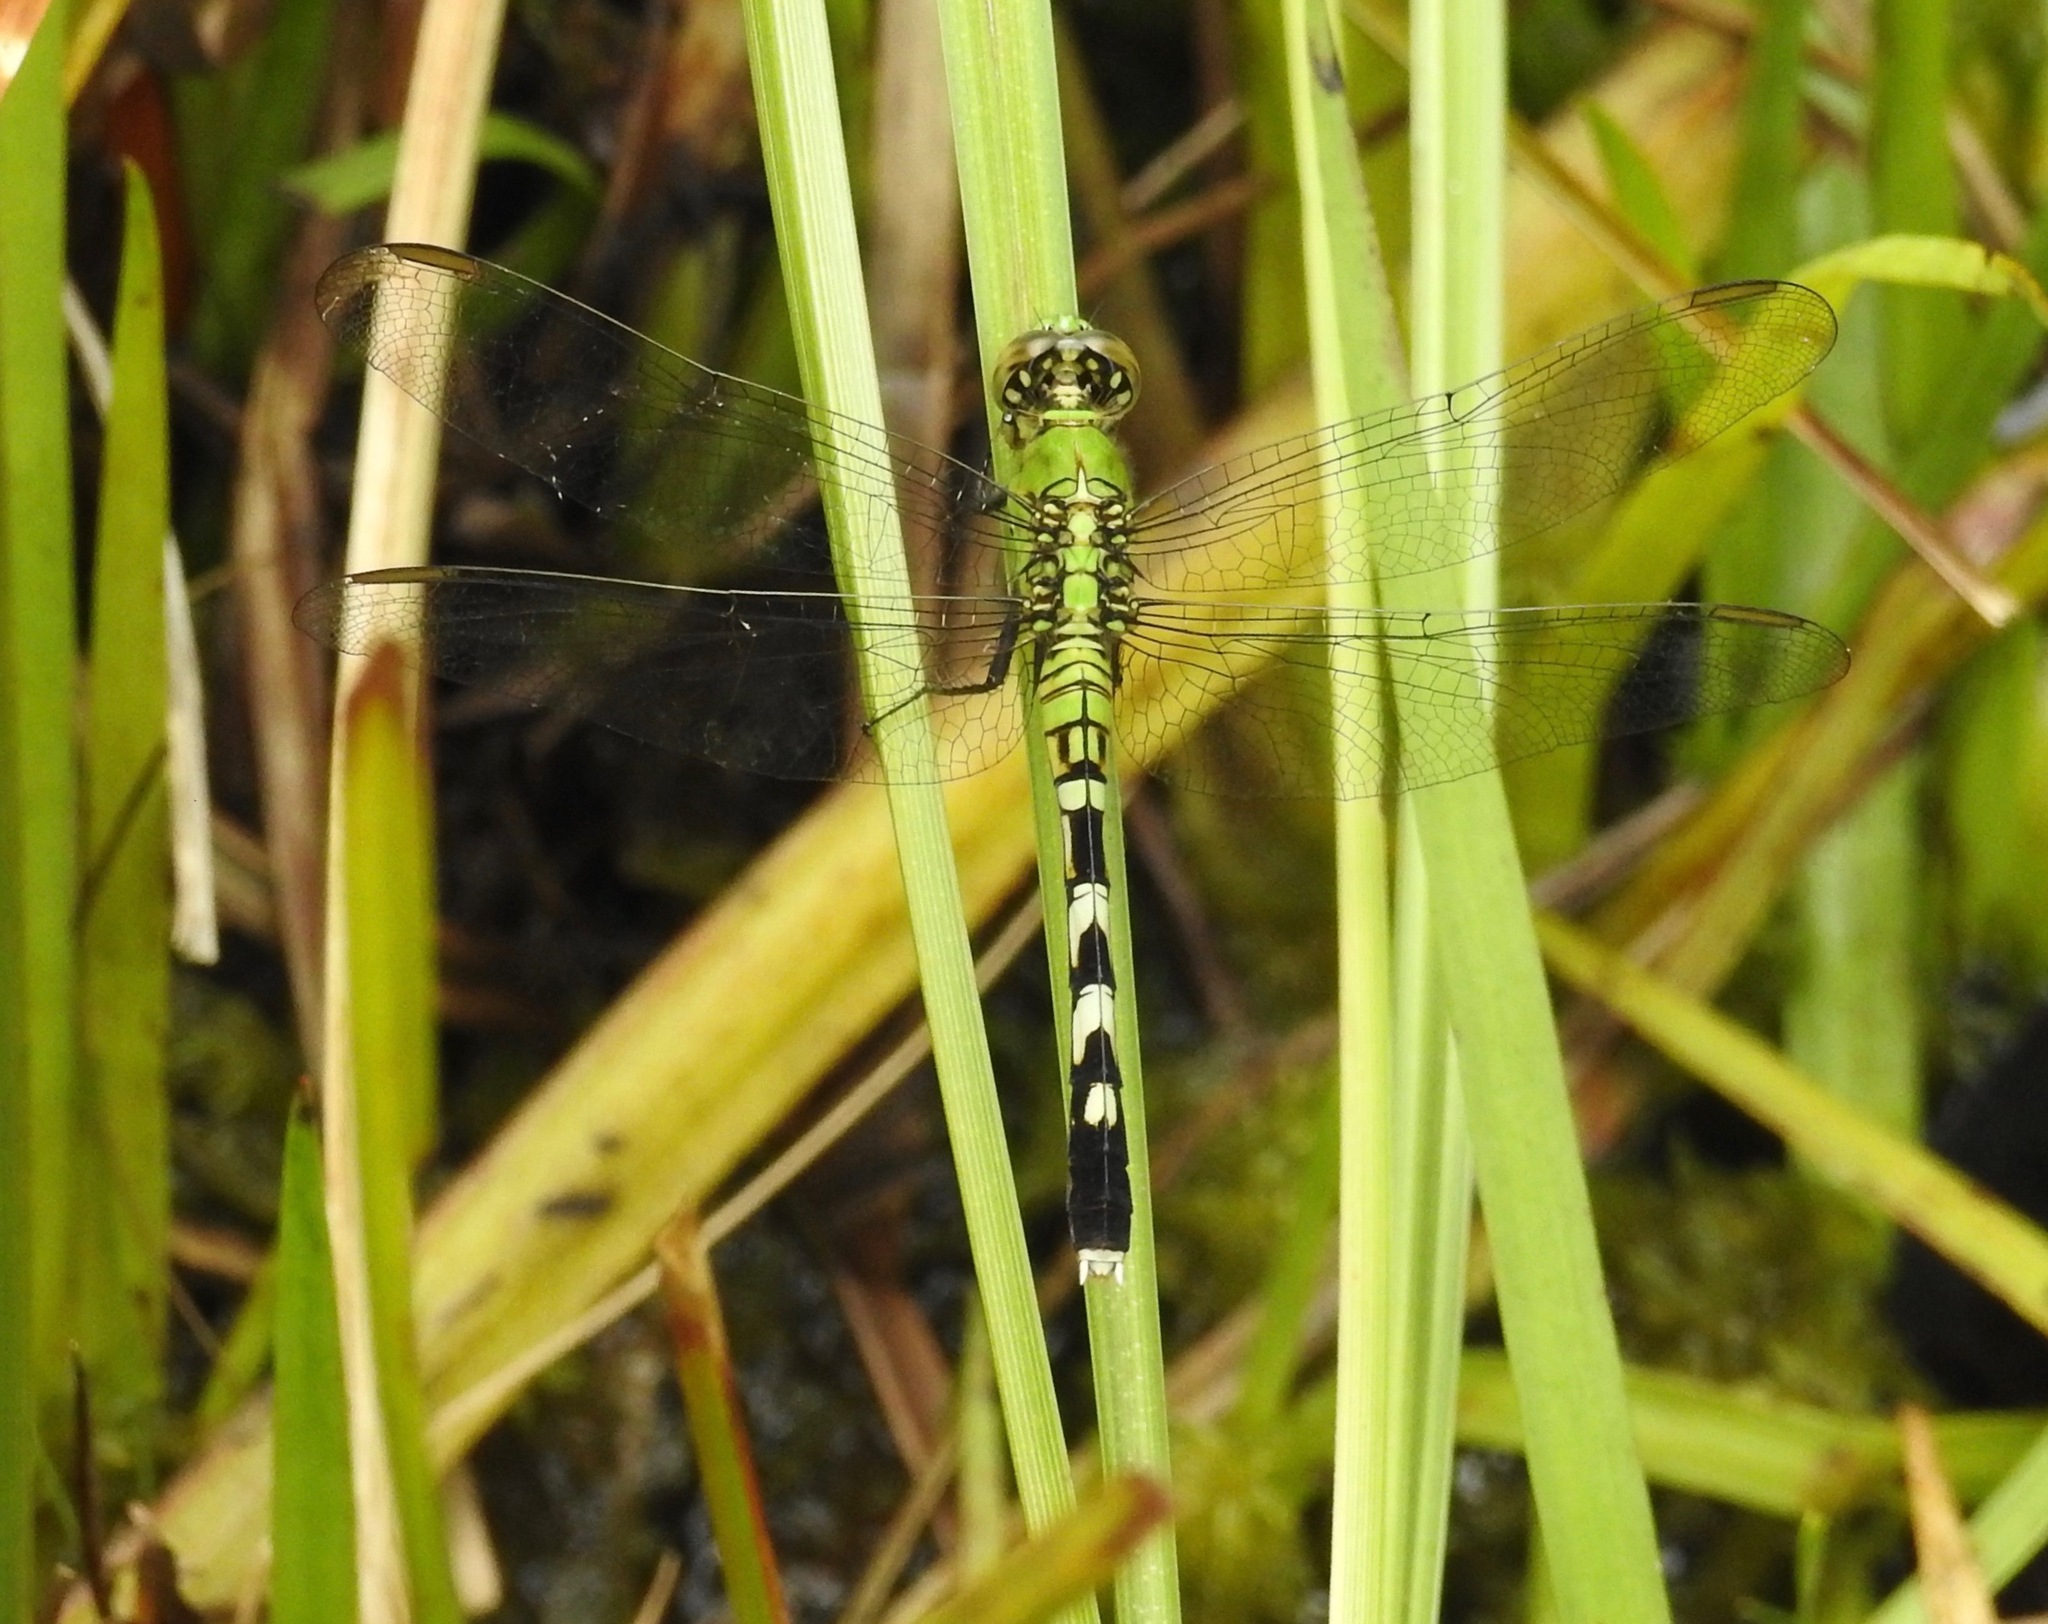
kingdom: Animalia
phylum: Arthropoda
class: Insecta
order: Odonata
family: Libellulidae
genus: Erythemis
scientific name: Erythemis simplicicollis
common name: Eastern pondhawk
